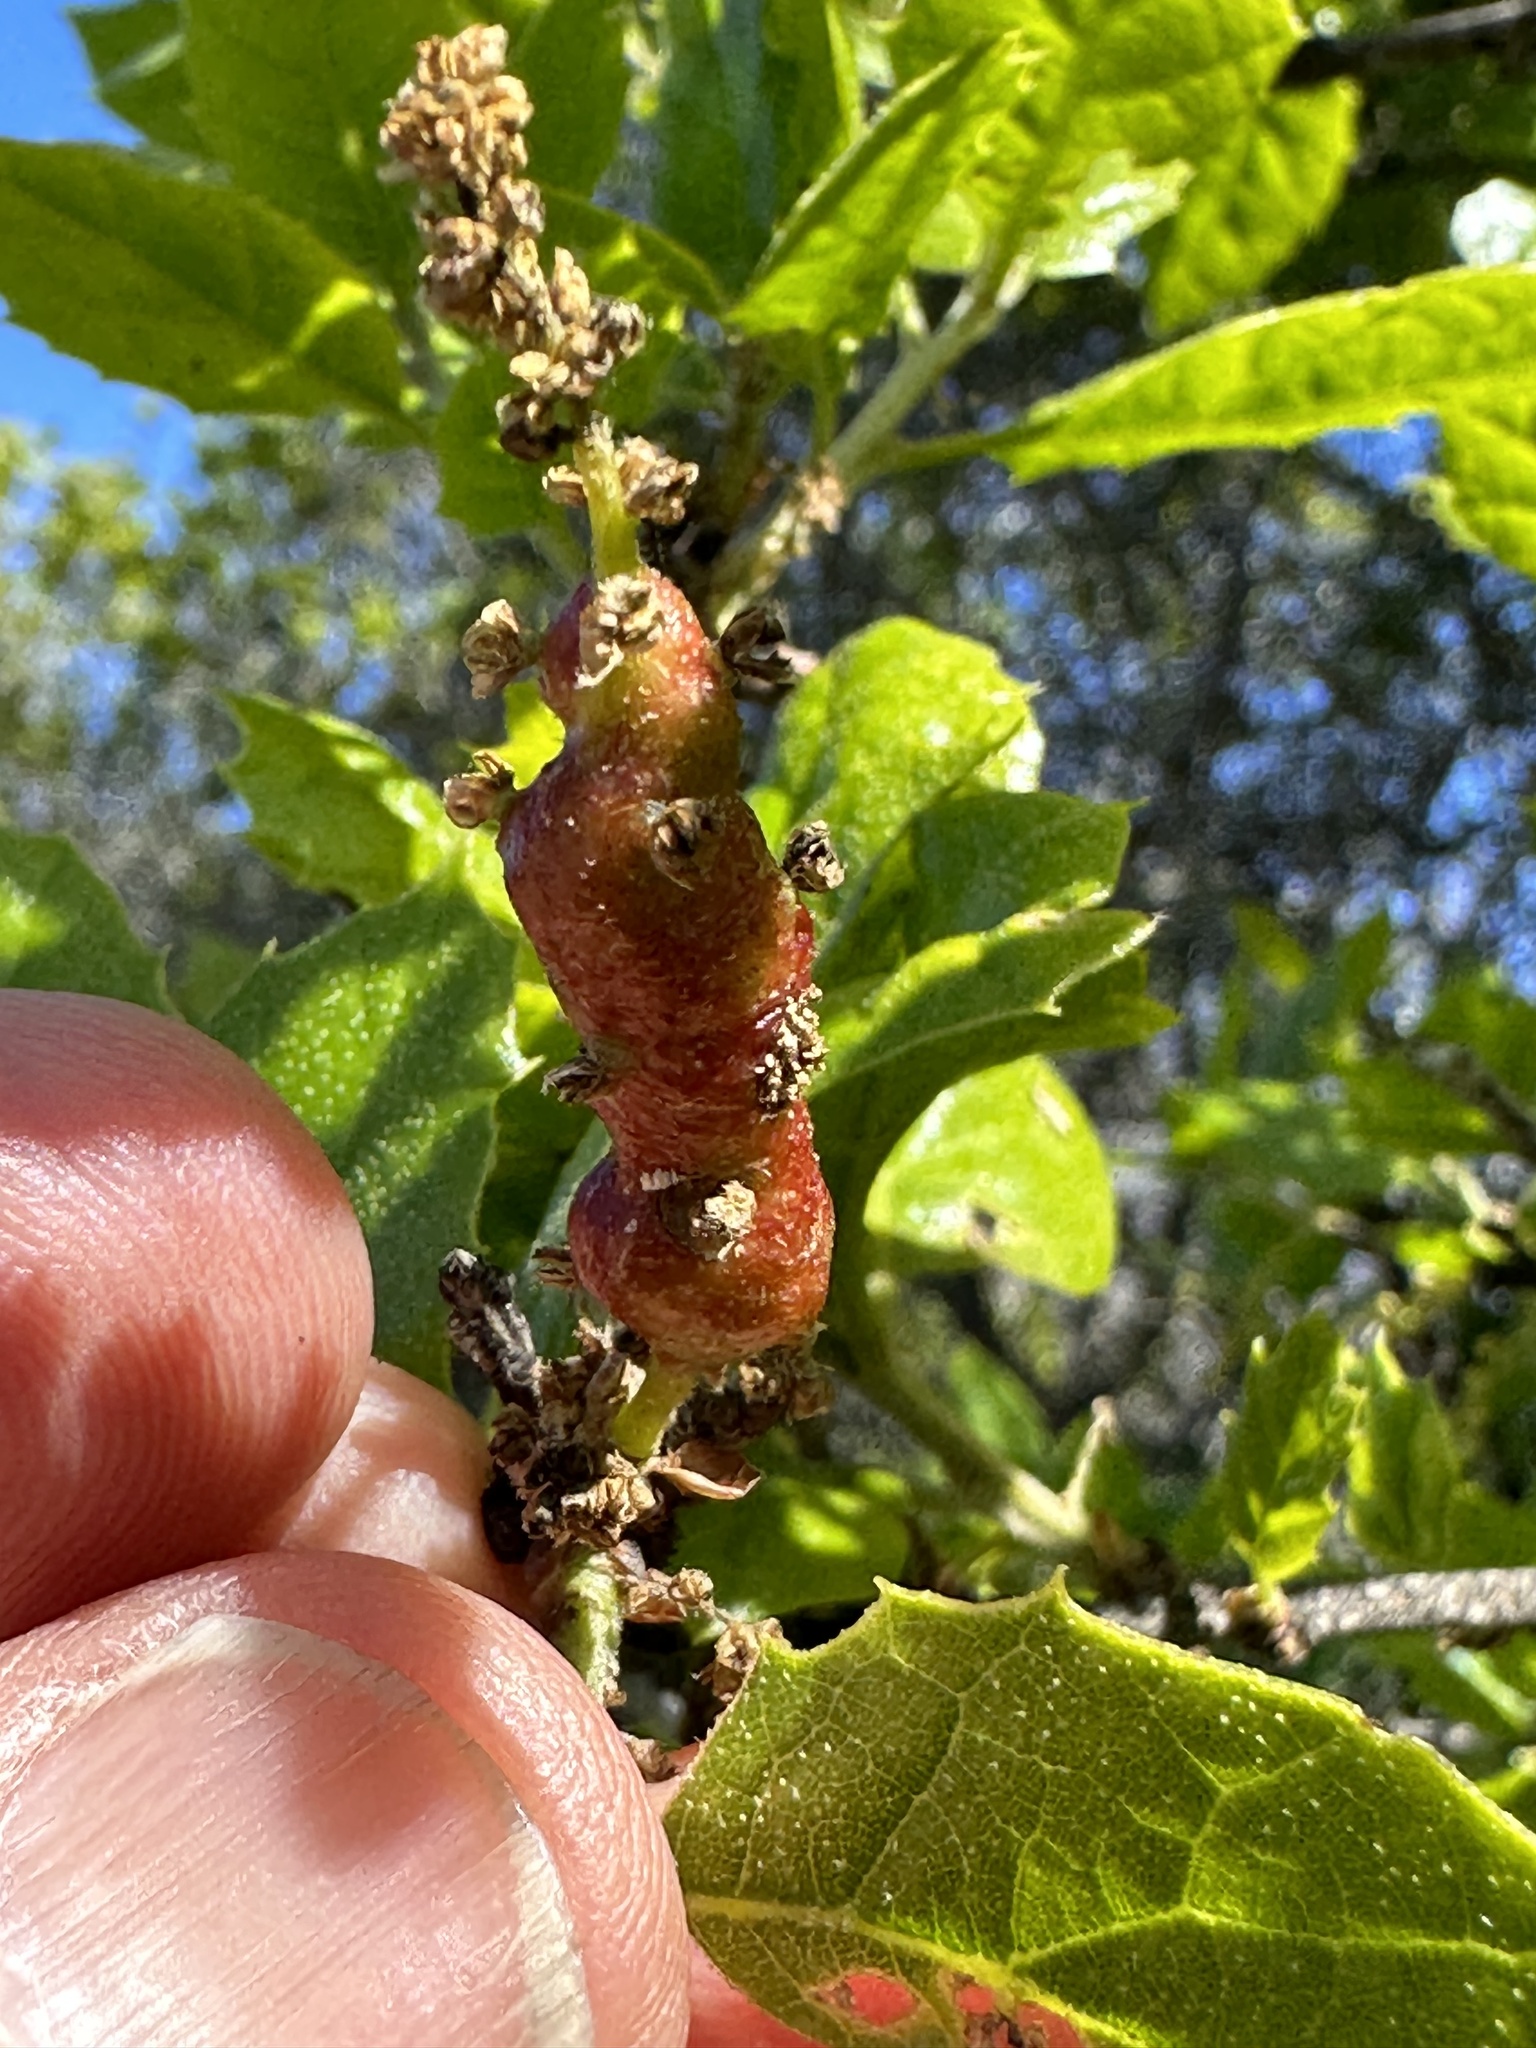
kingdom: Animalia
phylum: Arthropoda
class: Insecta
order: Hymenoptera
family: Cynipidae
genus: Callirhytis
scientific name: Callirhytis
